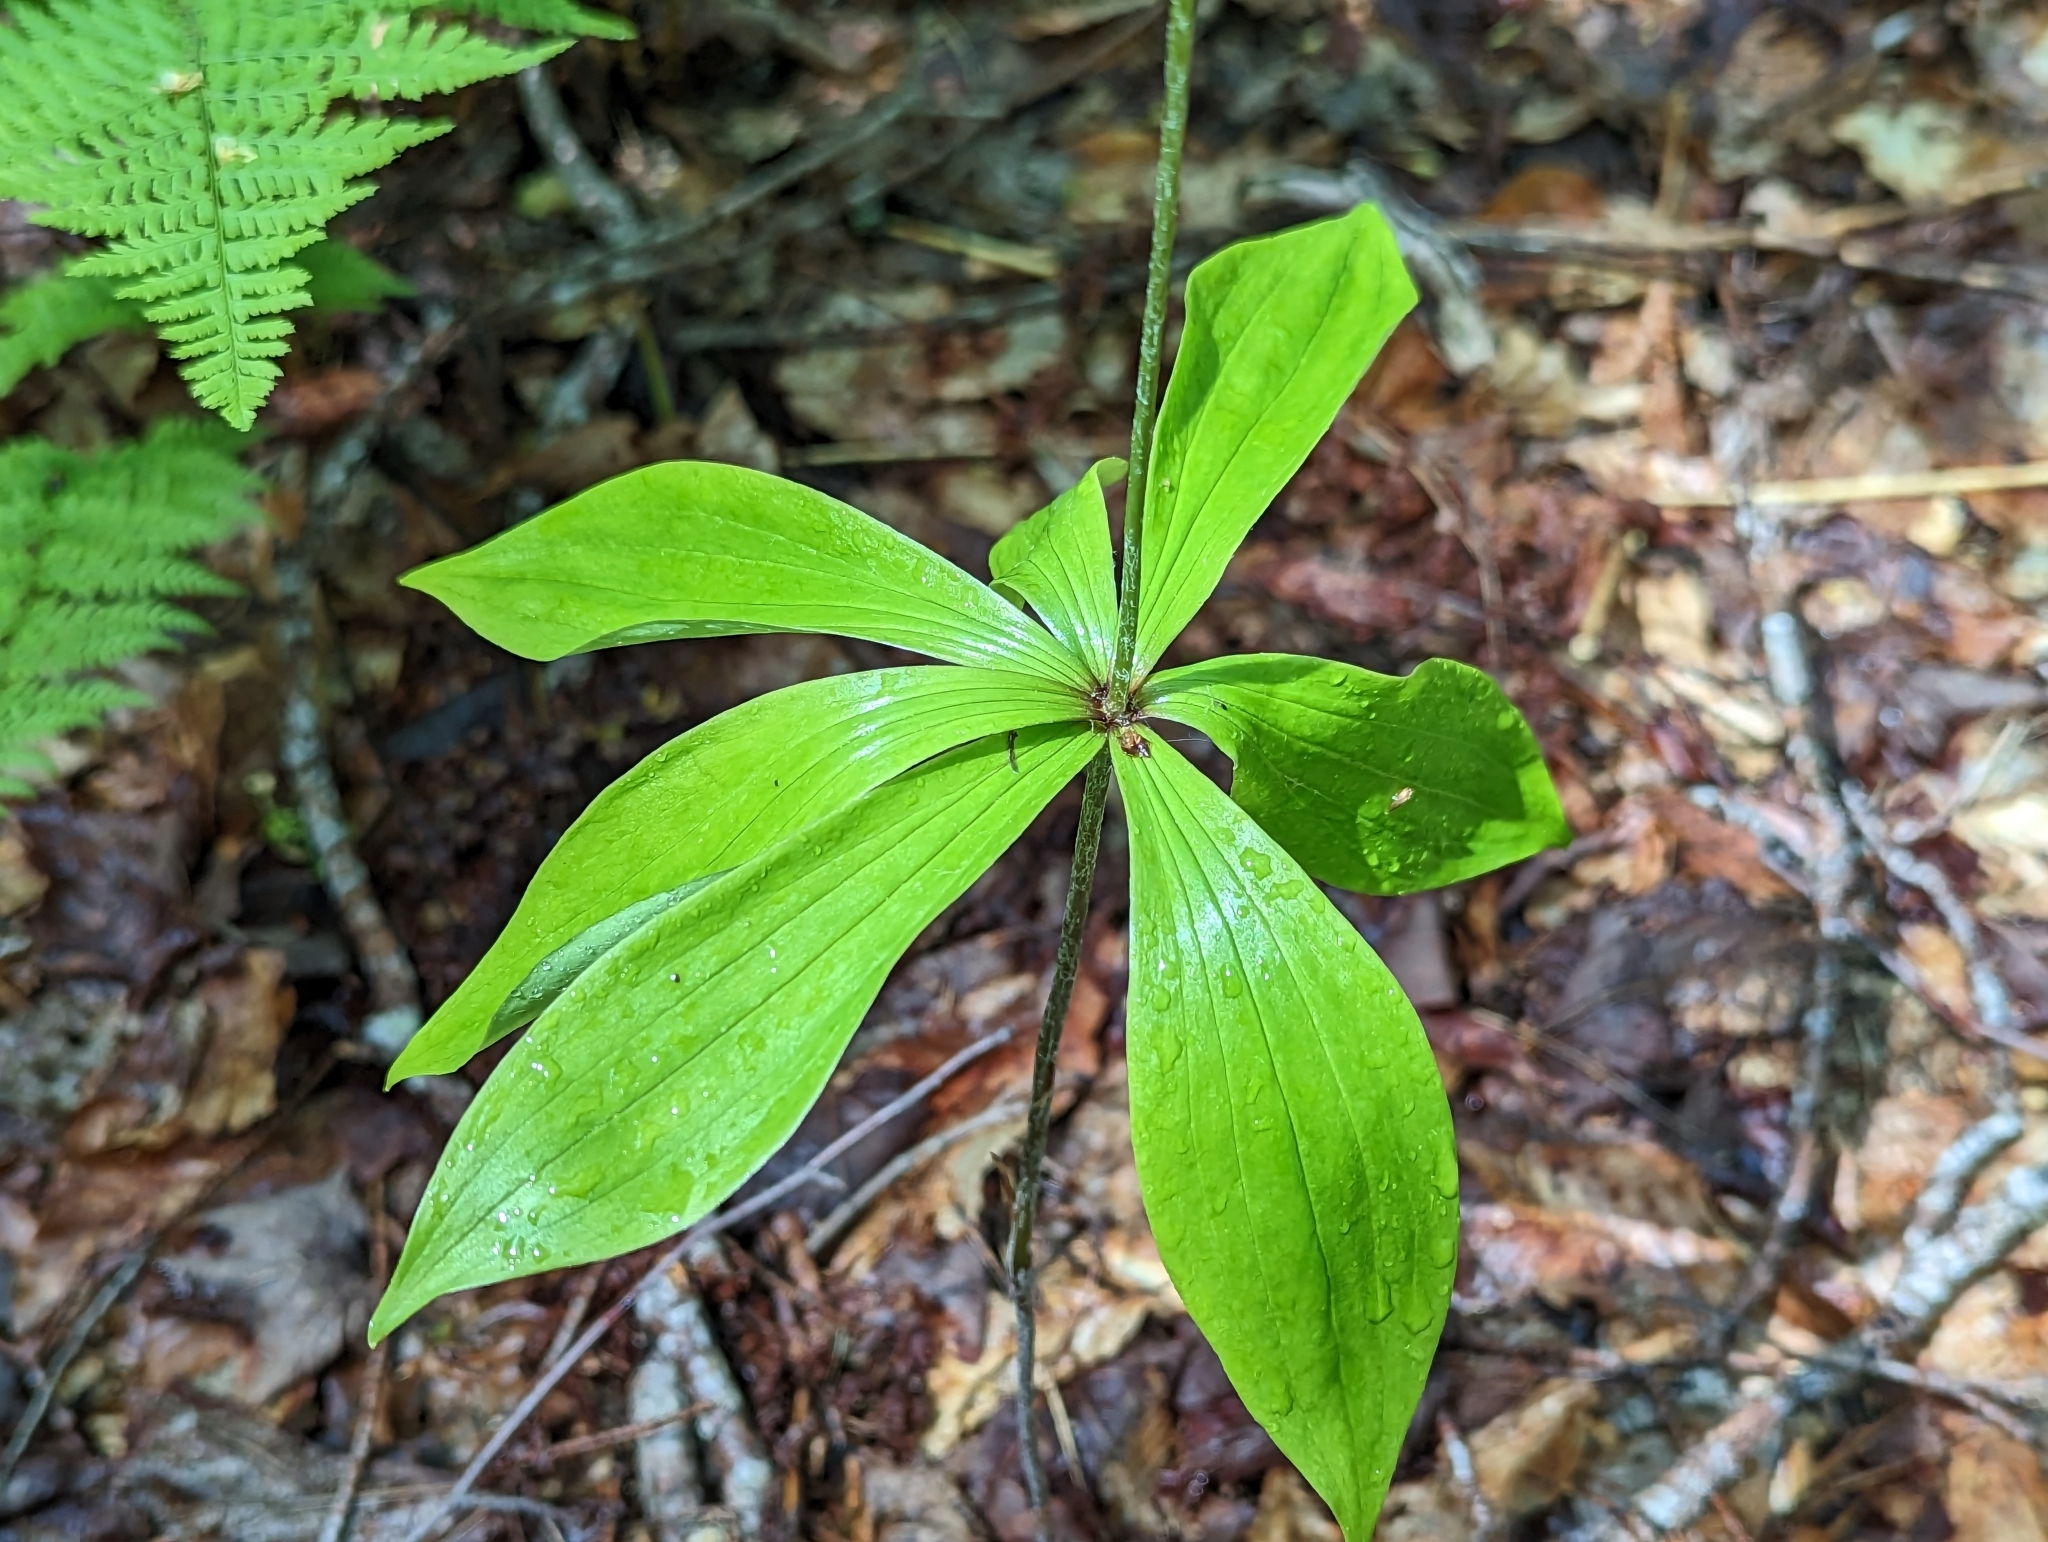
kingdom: Plantae
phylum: Tracheophyta
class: Liliopsida
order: Liliales
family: Liliaceae
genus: Medeola
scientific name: Medeola virginiana
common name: Indian cucumber-root
